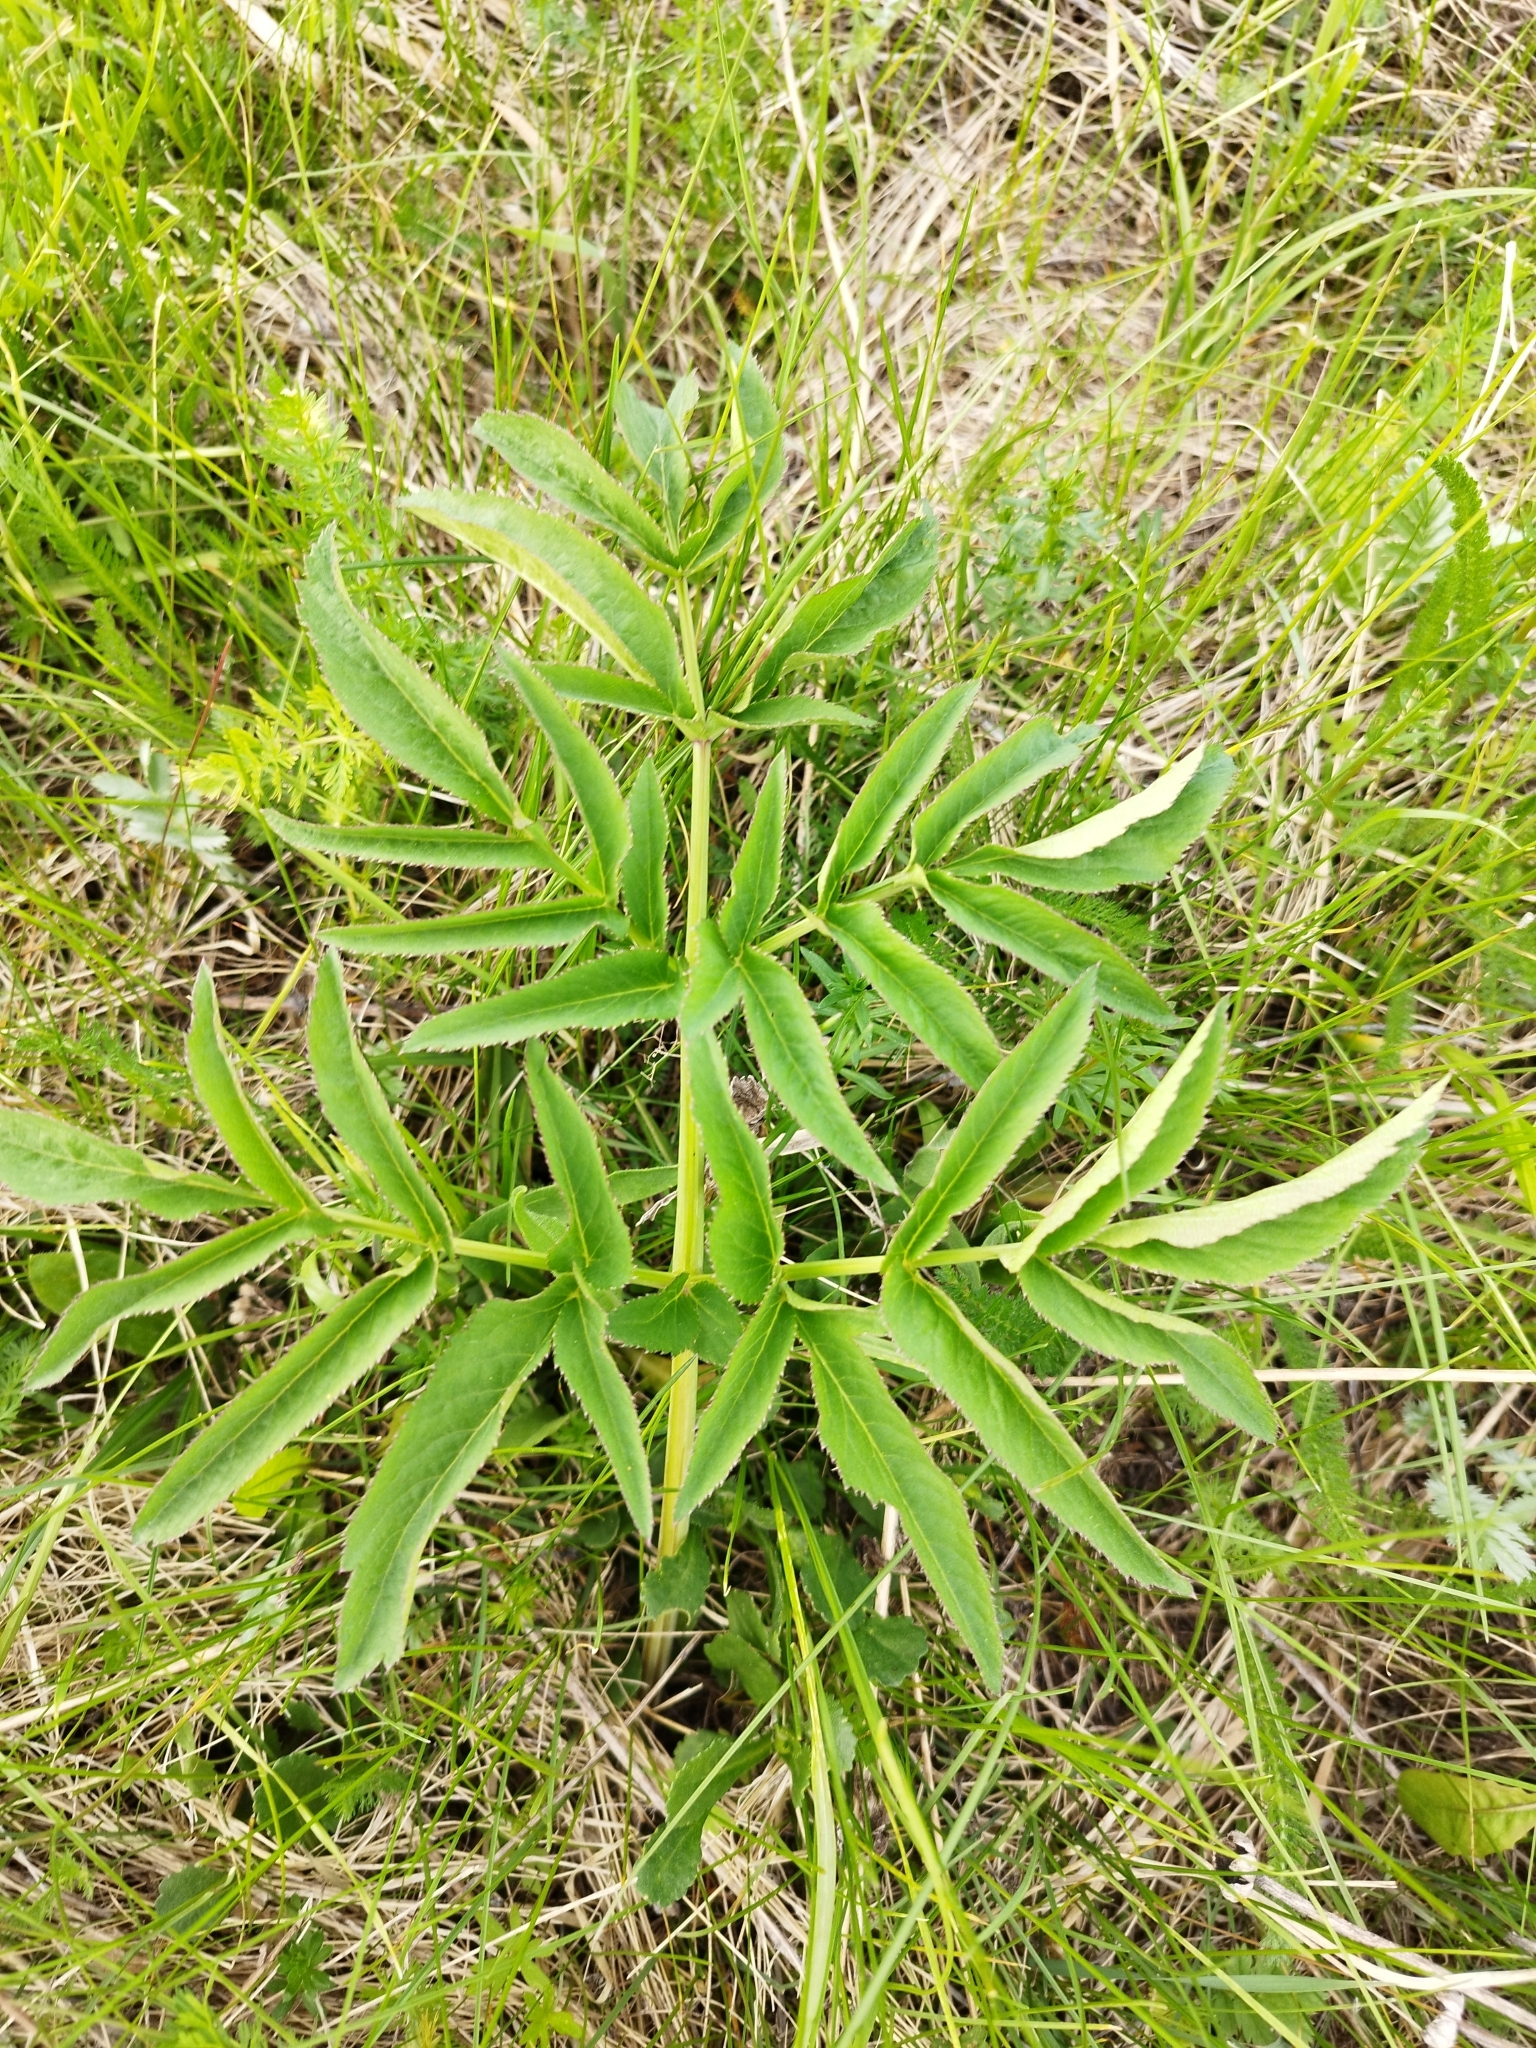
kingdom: Plantae
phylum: Tracheophyta
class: Magnoliopsida
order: Apiales
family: Apiaceae
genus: Angelica
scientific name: Angelica sylvestris
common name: Wild angelica
